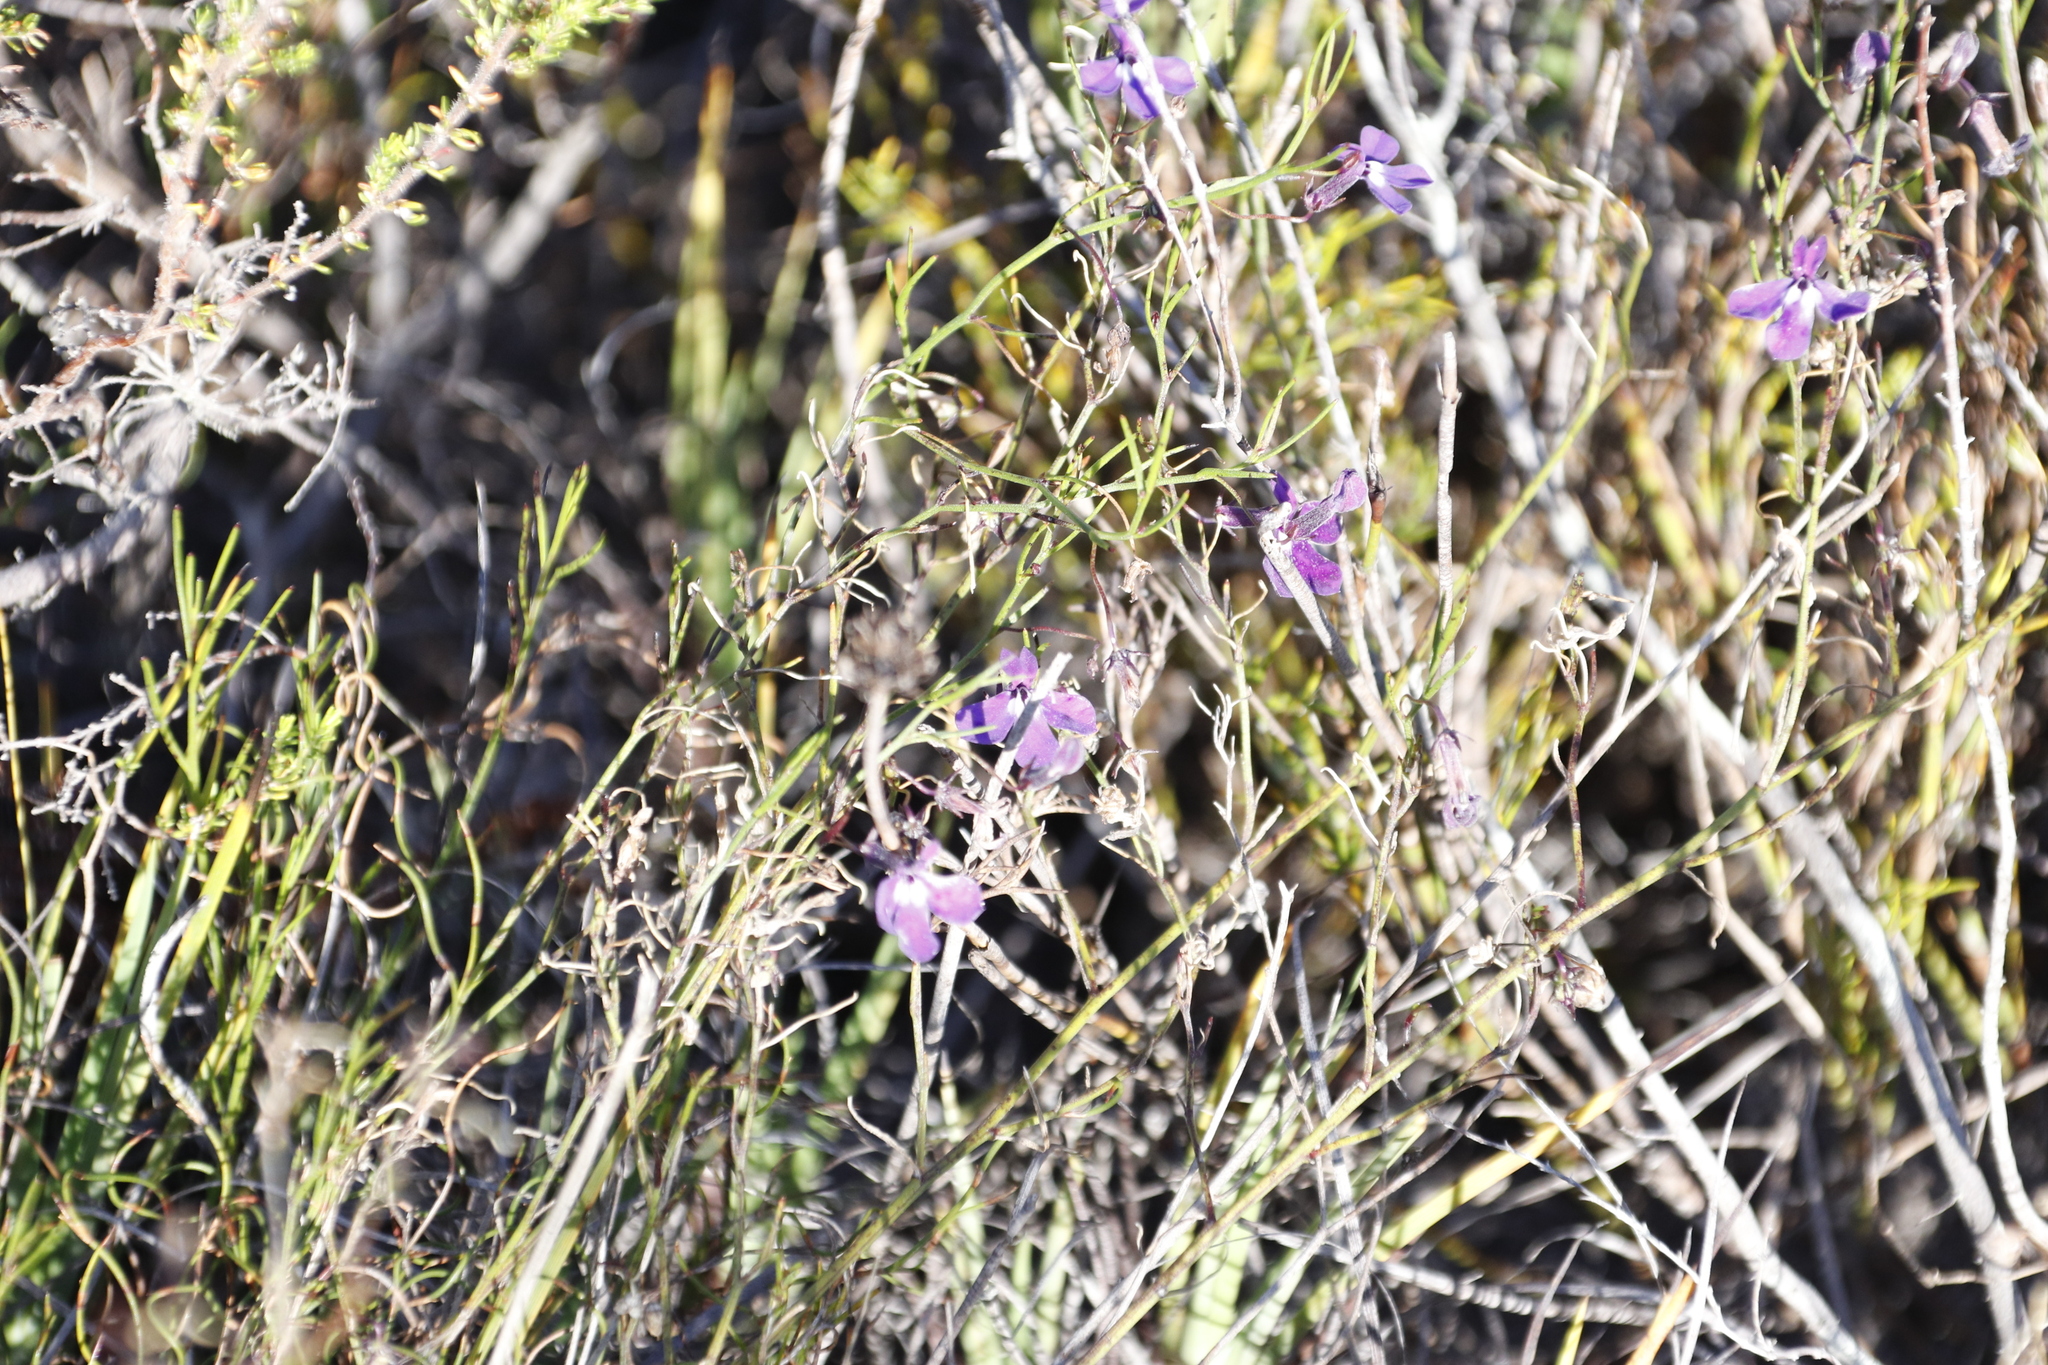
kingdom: Plantae
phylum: Tracheophyta
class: Magnoliopsida
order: Asterales
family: Campanulaceae
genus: Lobelia
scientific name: Lobelia setacea
